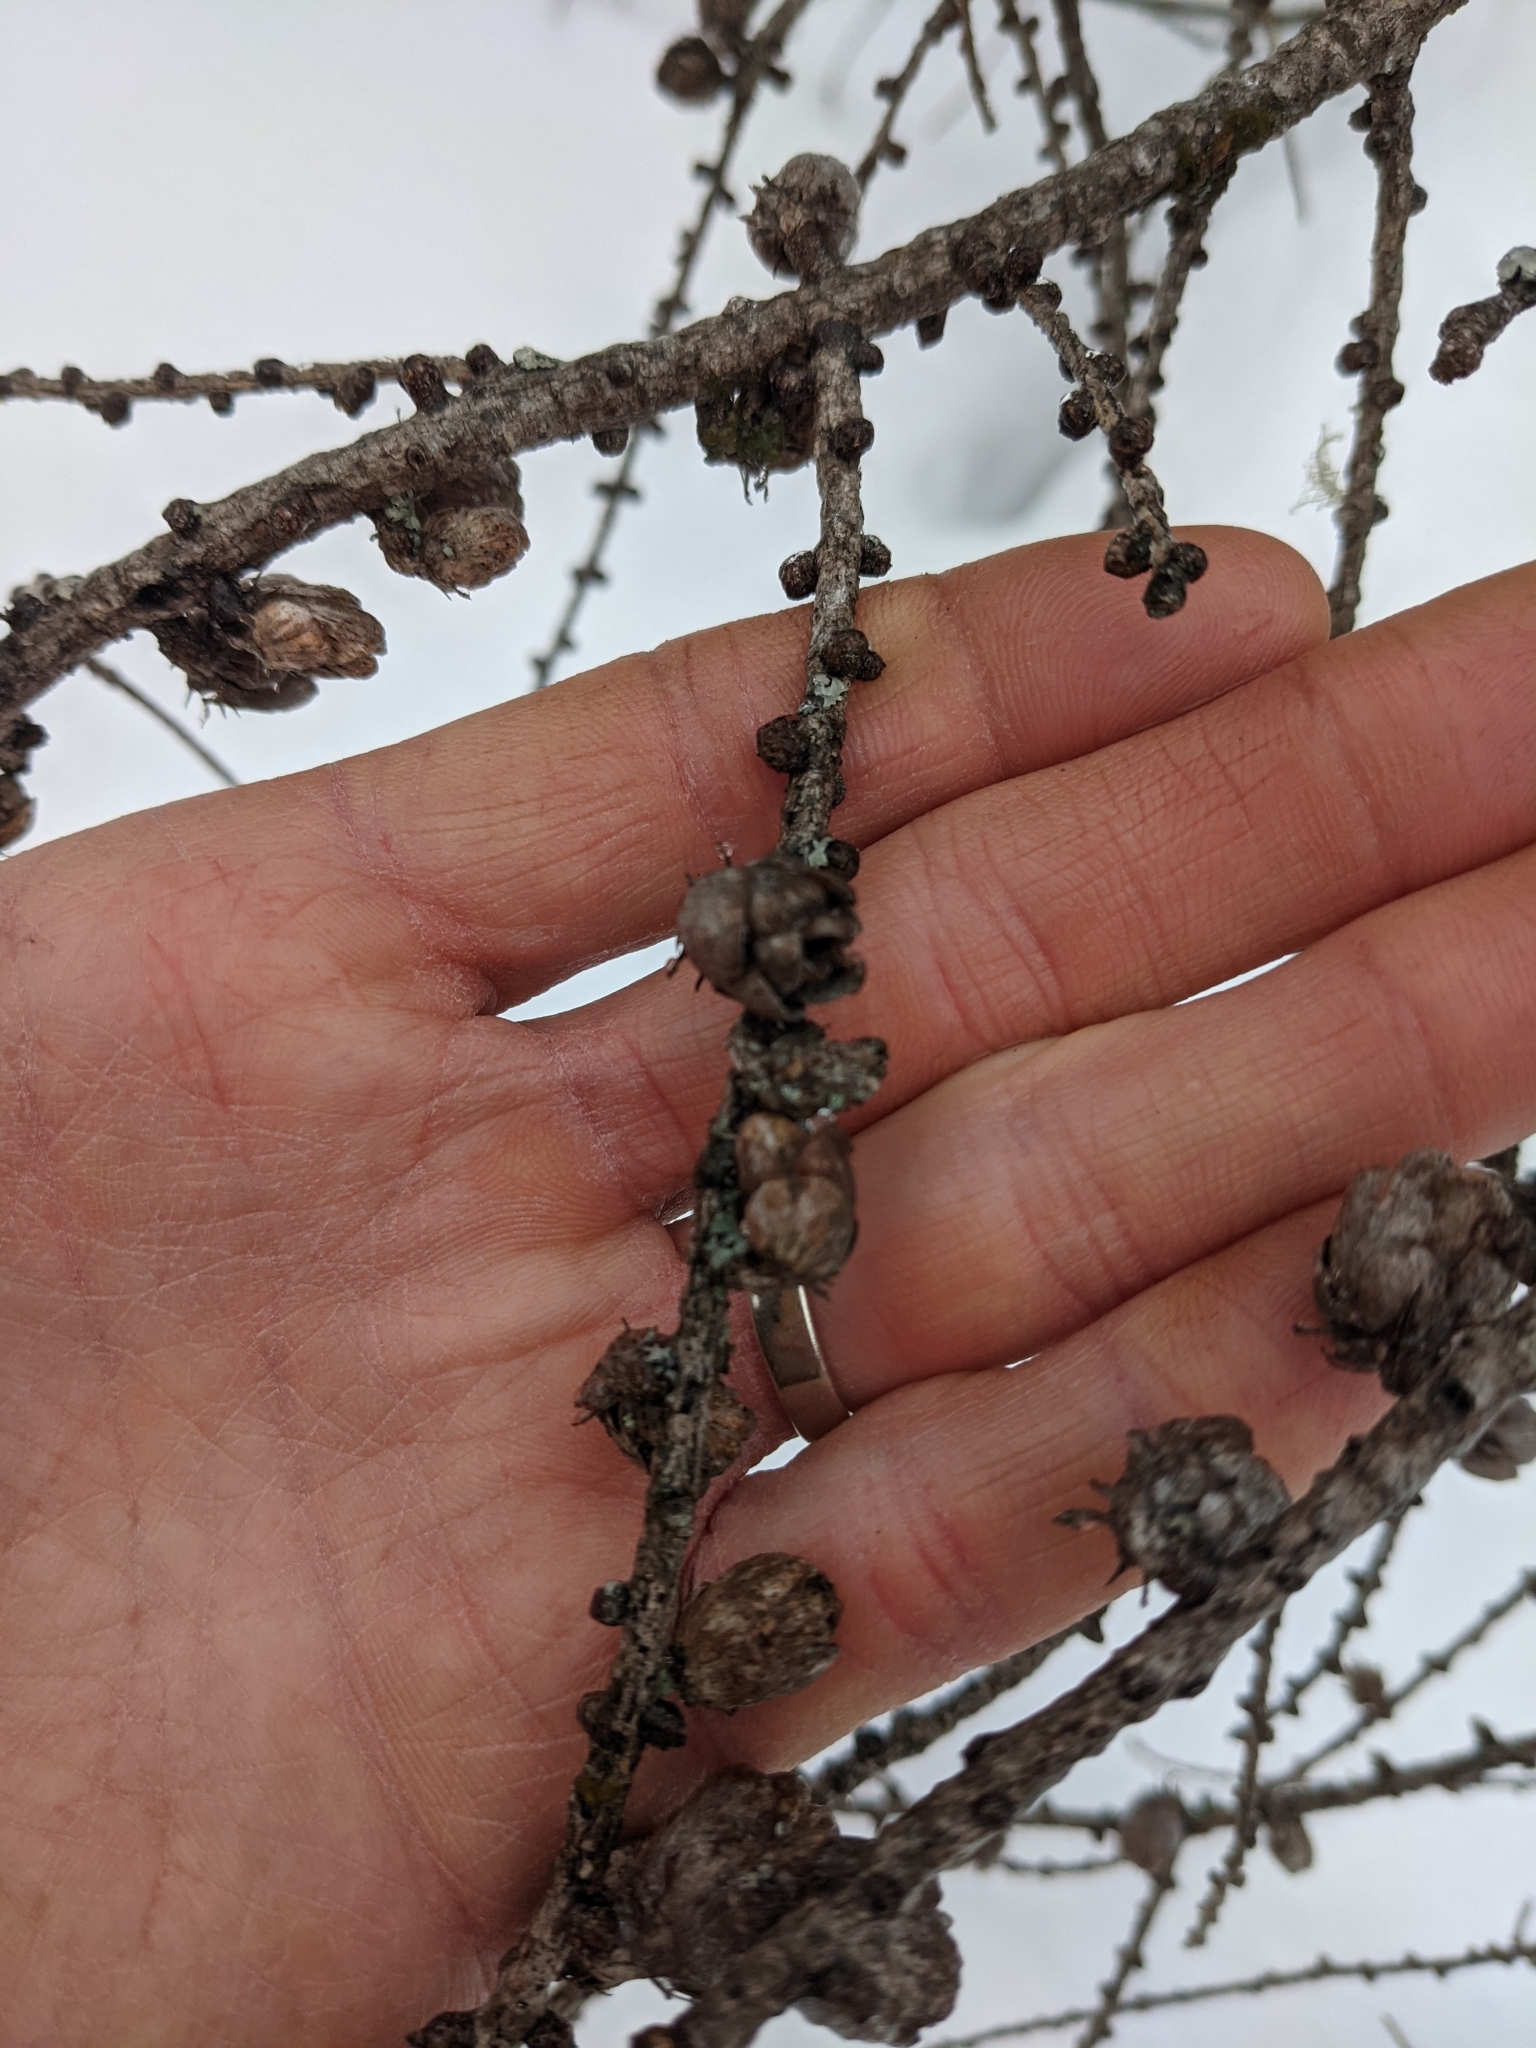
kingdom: Plantae
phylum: Tracheophyta
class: Pinopsida
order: Pinales
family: Pinaceae
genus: Larix
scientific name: Larix laricina
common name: American larch
